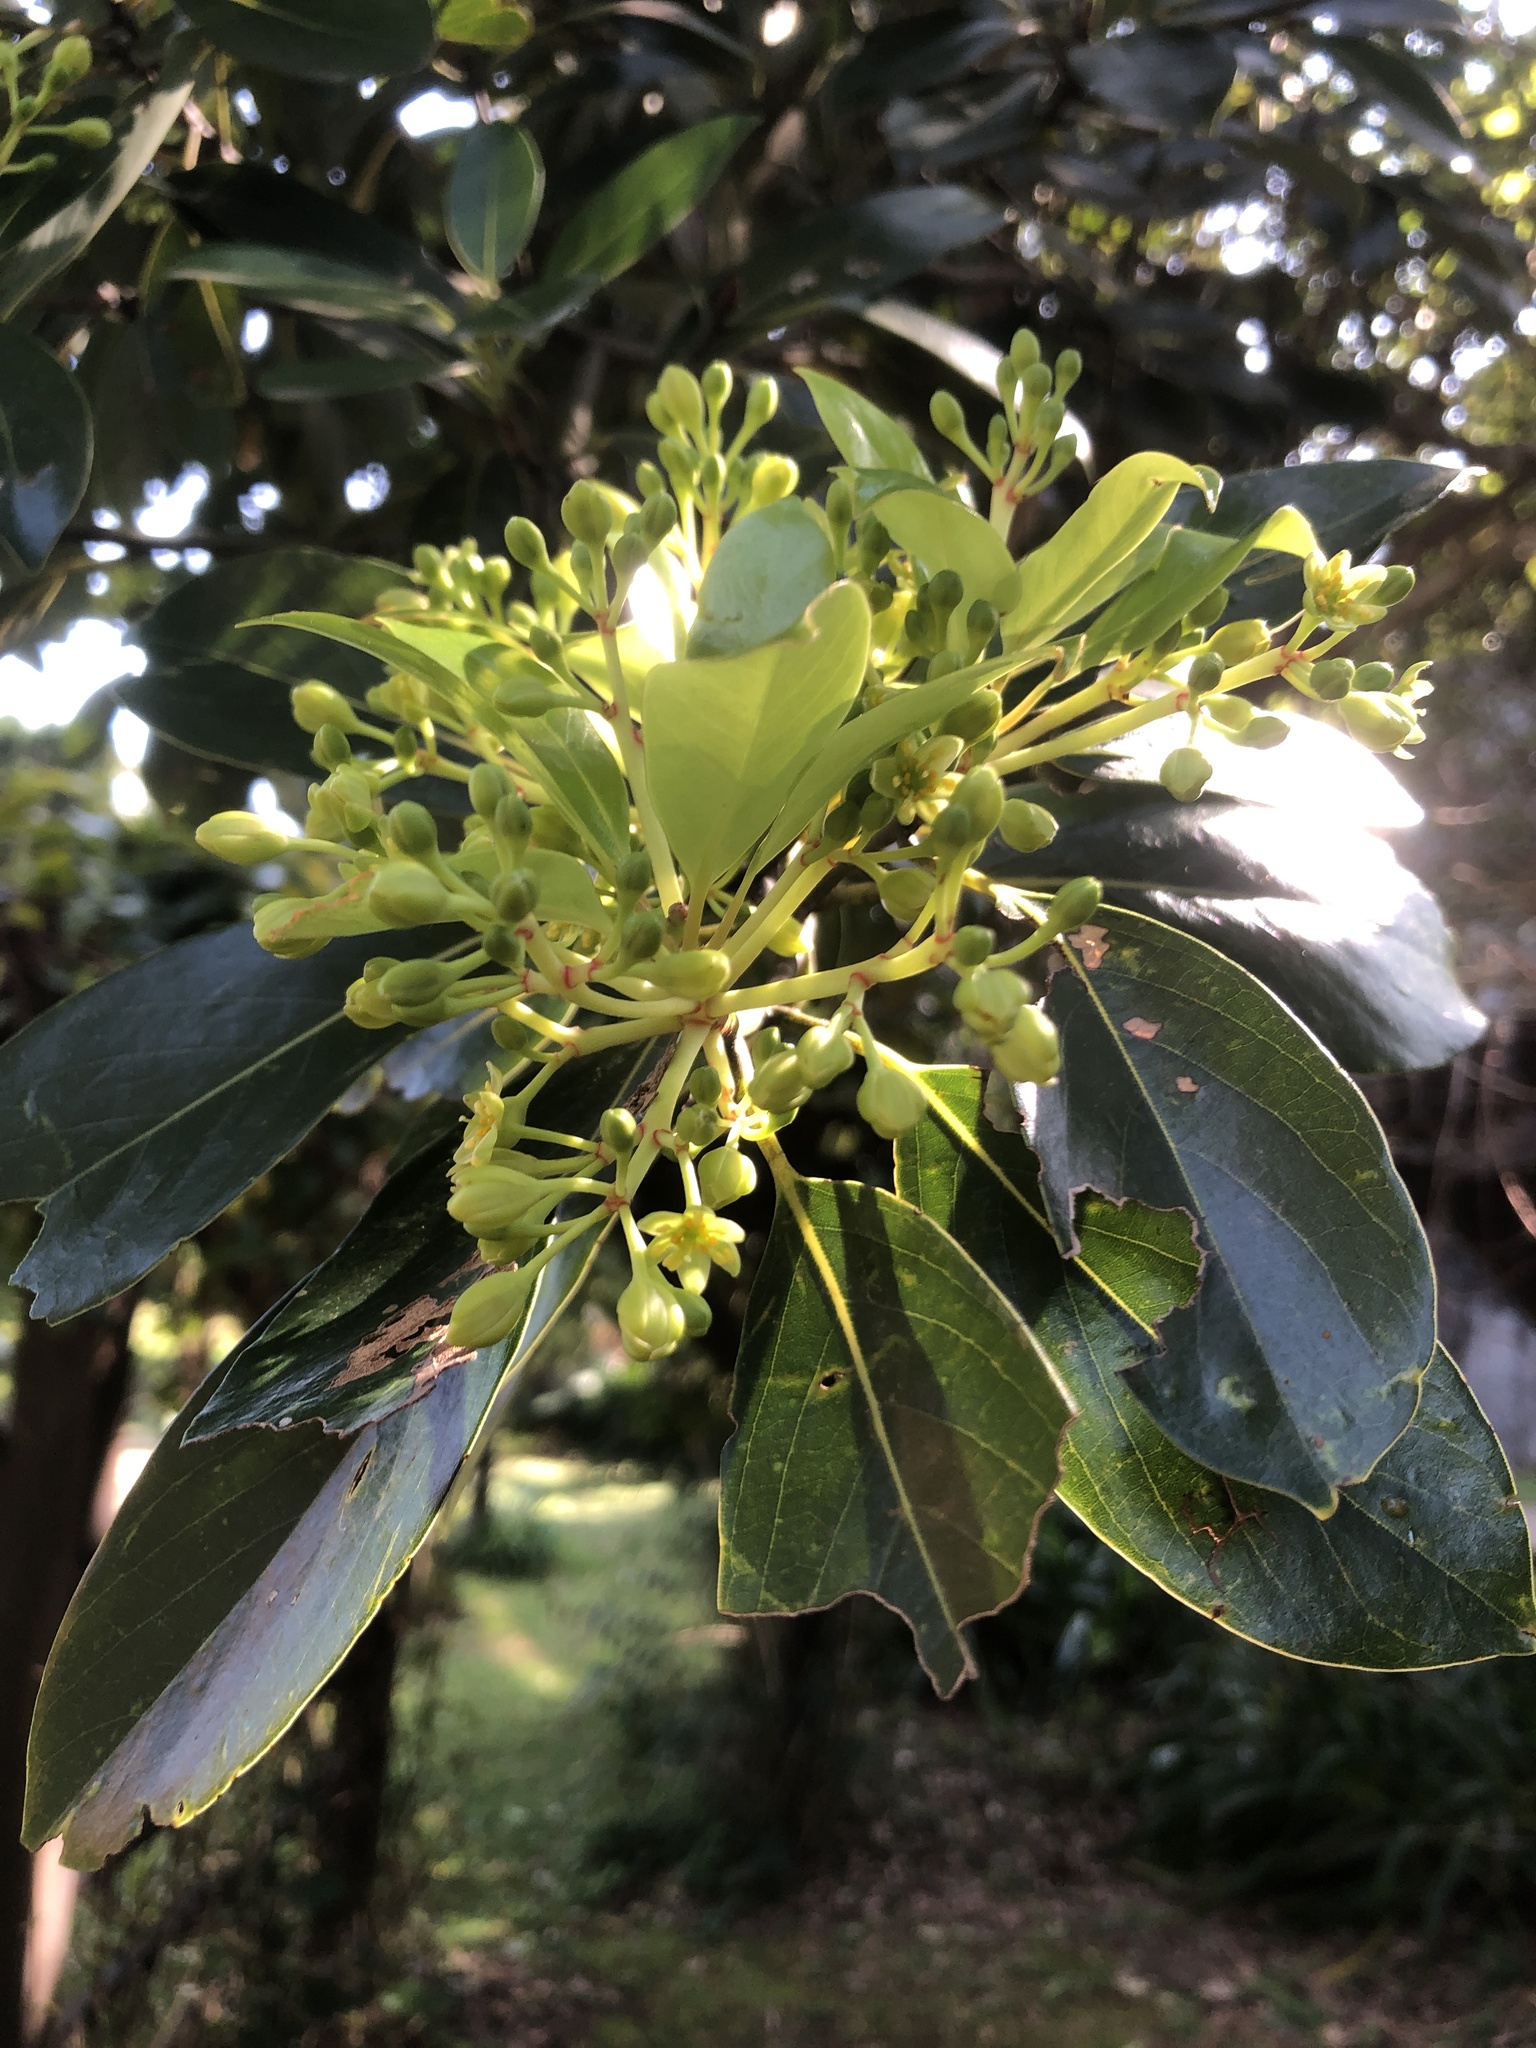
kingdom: Plantae
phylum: Tracheophyta
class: Magnoliopsida
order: Laurales
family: Lauraceae
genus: Machilus
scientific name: Machilus thunbergii
